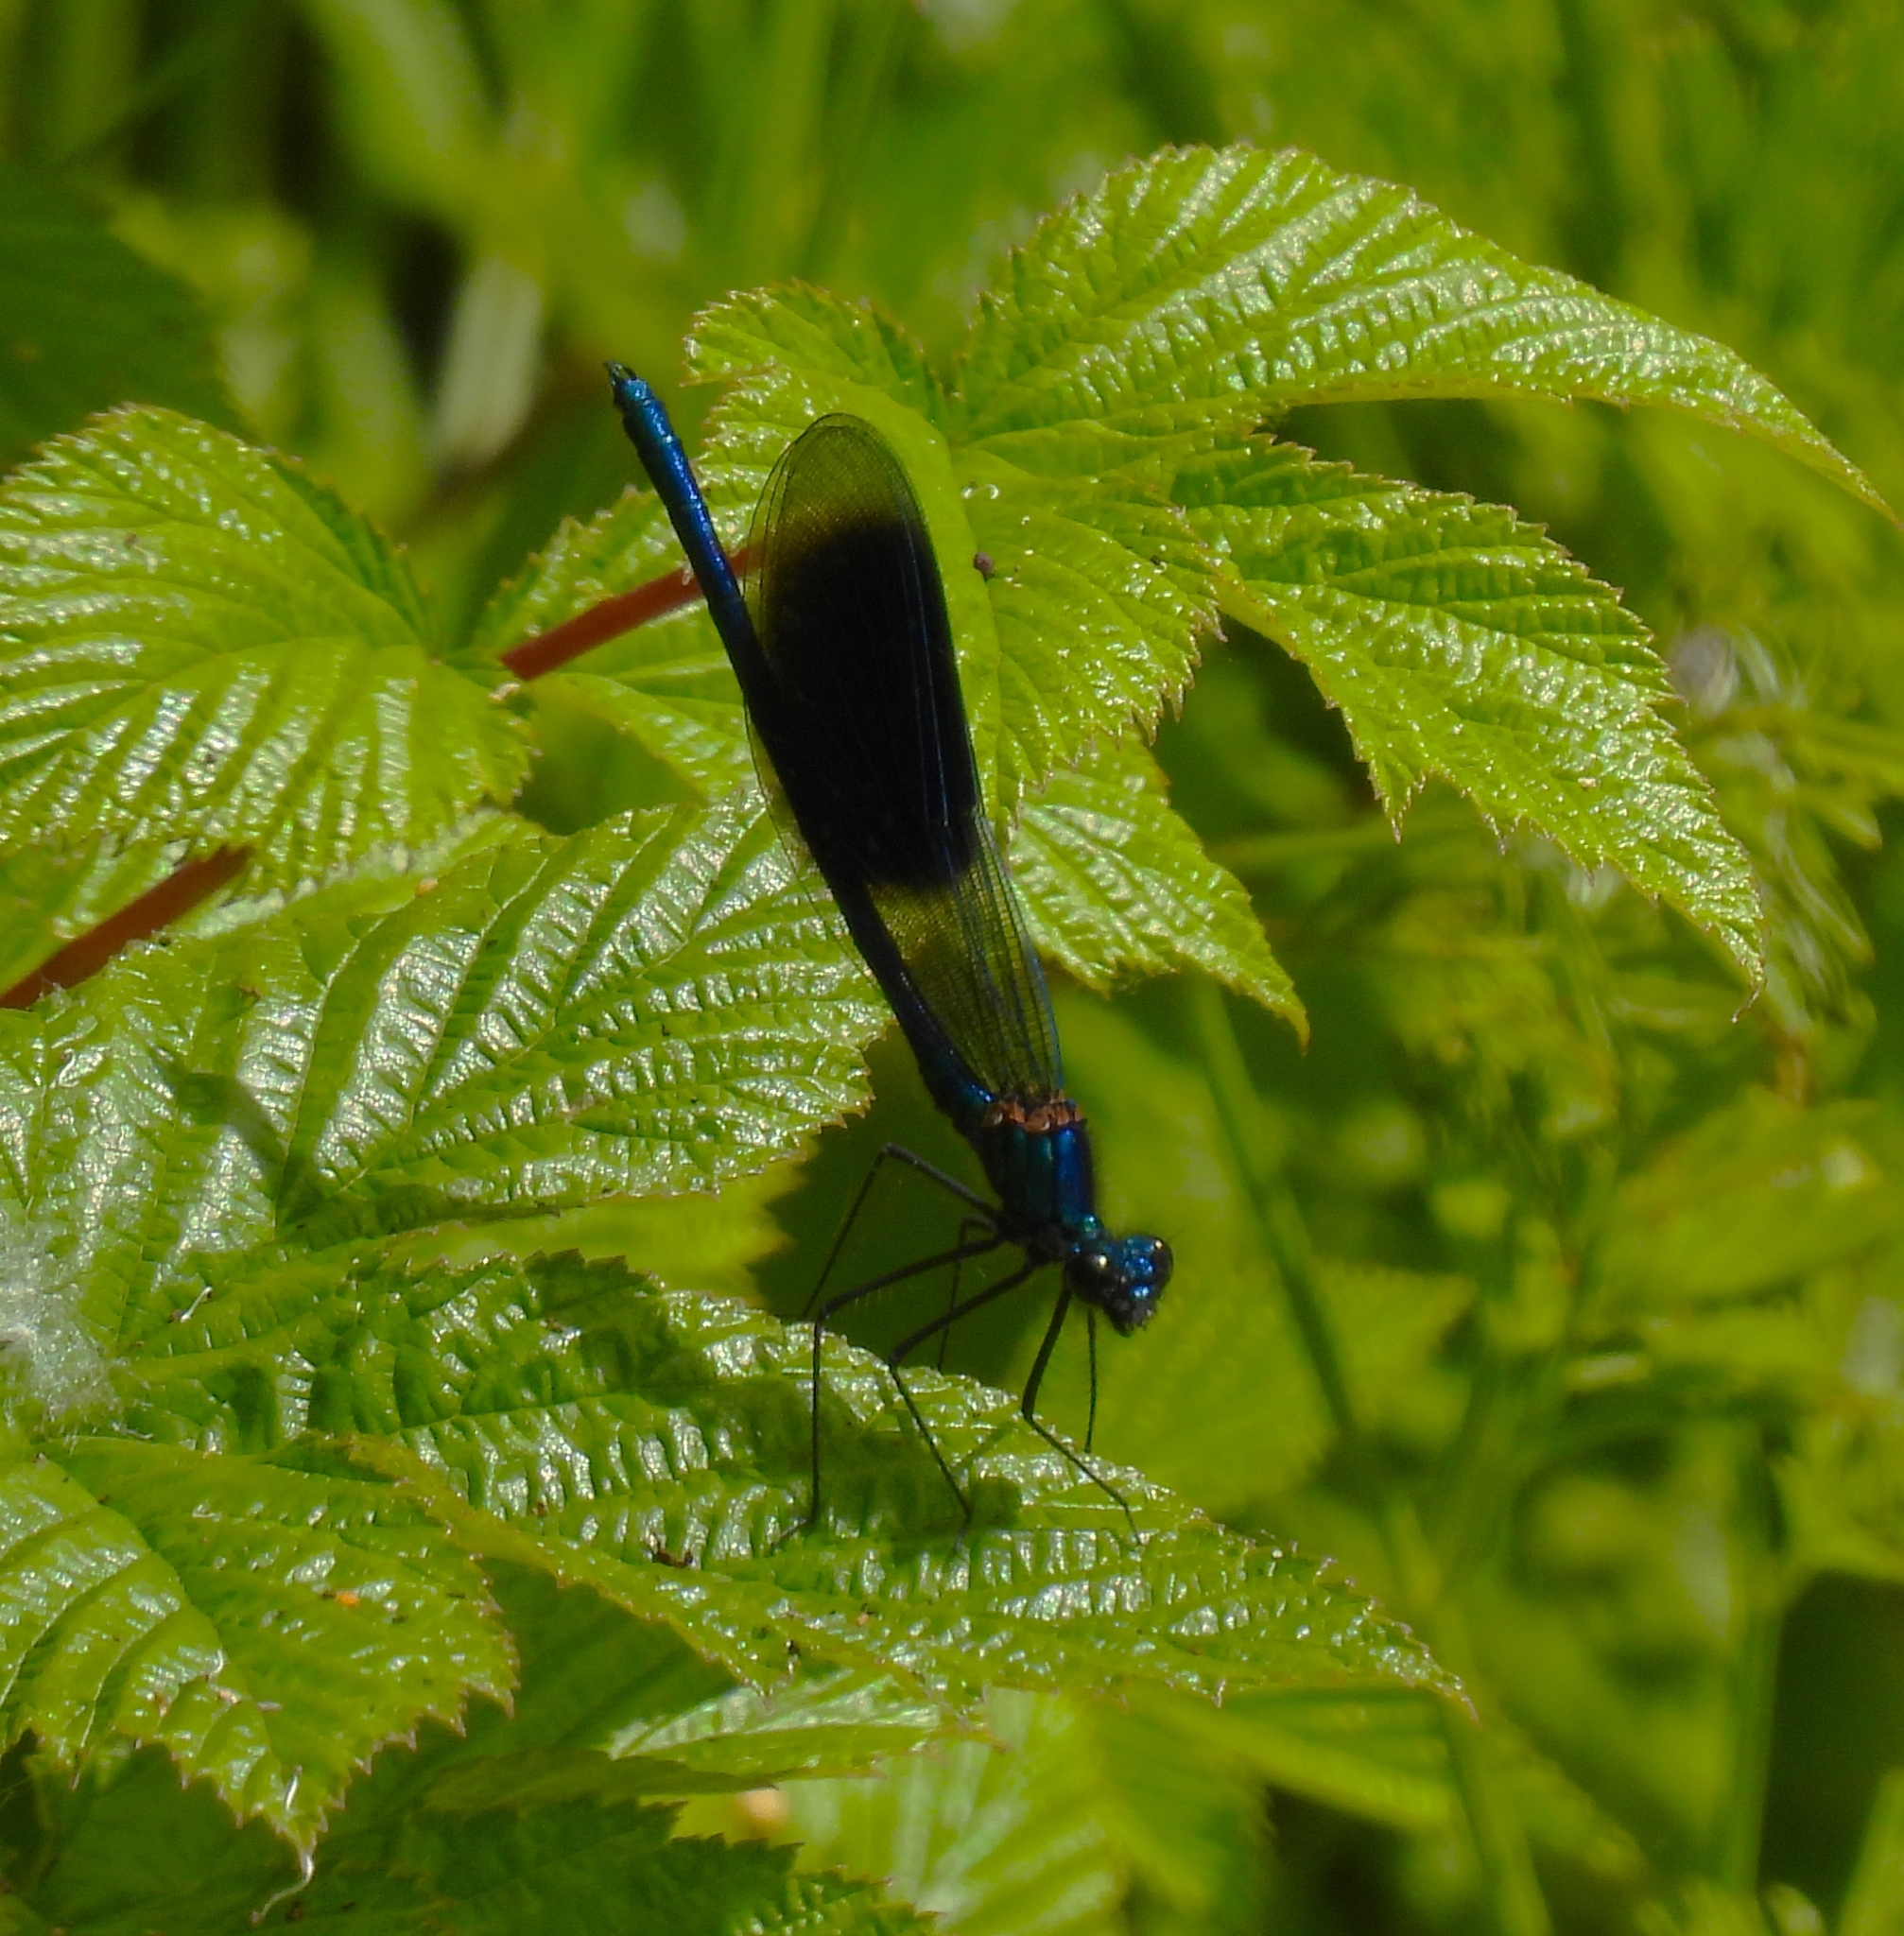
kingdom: Animalia
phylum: Arthropoda
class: Insecta
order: Odonata
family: Calopterygidae
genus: Calopteryx
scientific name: Calopteryx splendens
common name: Banded demoiselle
